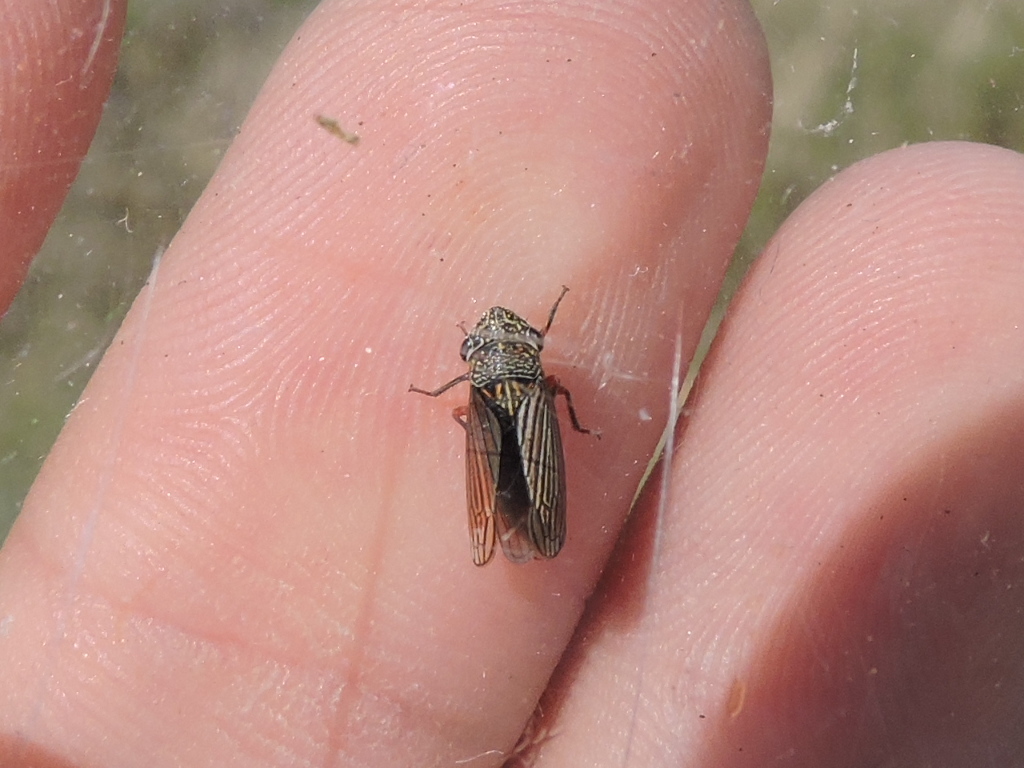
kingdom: Animalia
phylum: Arthropoda
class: Insecta
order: Hemiptera
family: Cicadellidae
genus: Cuerna
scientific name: Cuerna costalis
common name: Lateral-lined sharpshooter
